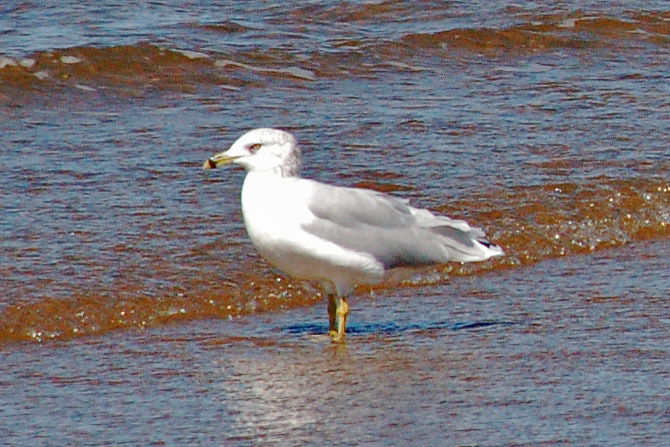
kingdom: Animalia
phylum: Chordata
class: Aves
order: Charadriiformes
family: Laridae
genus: Larus
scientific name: Larus delawarensis
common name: Ring-billed gull
